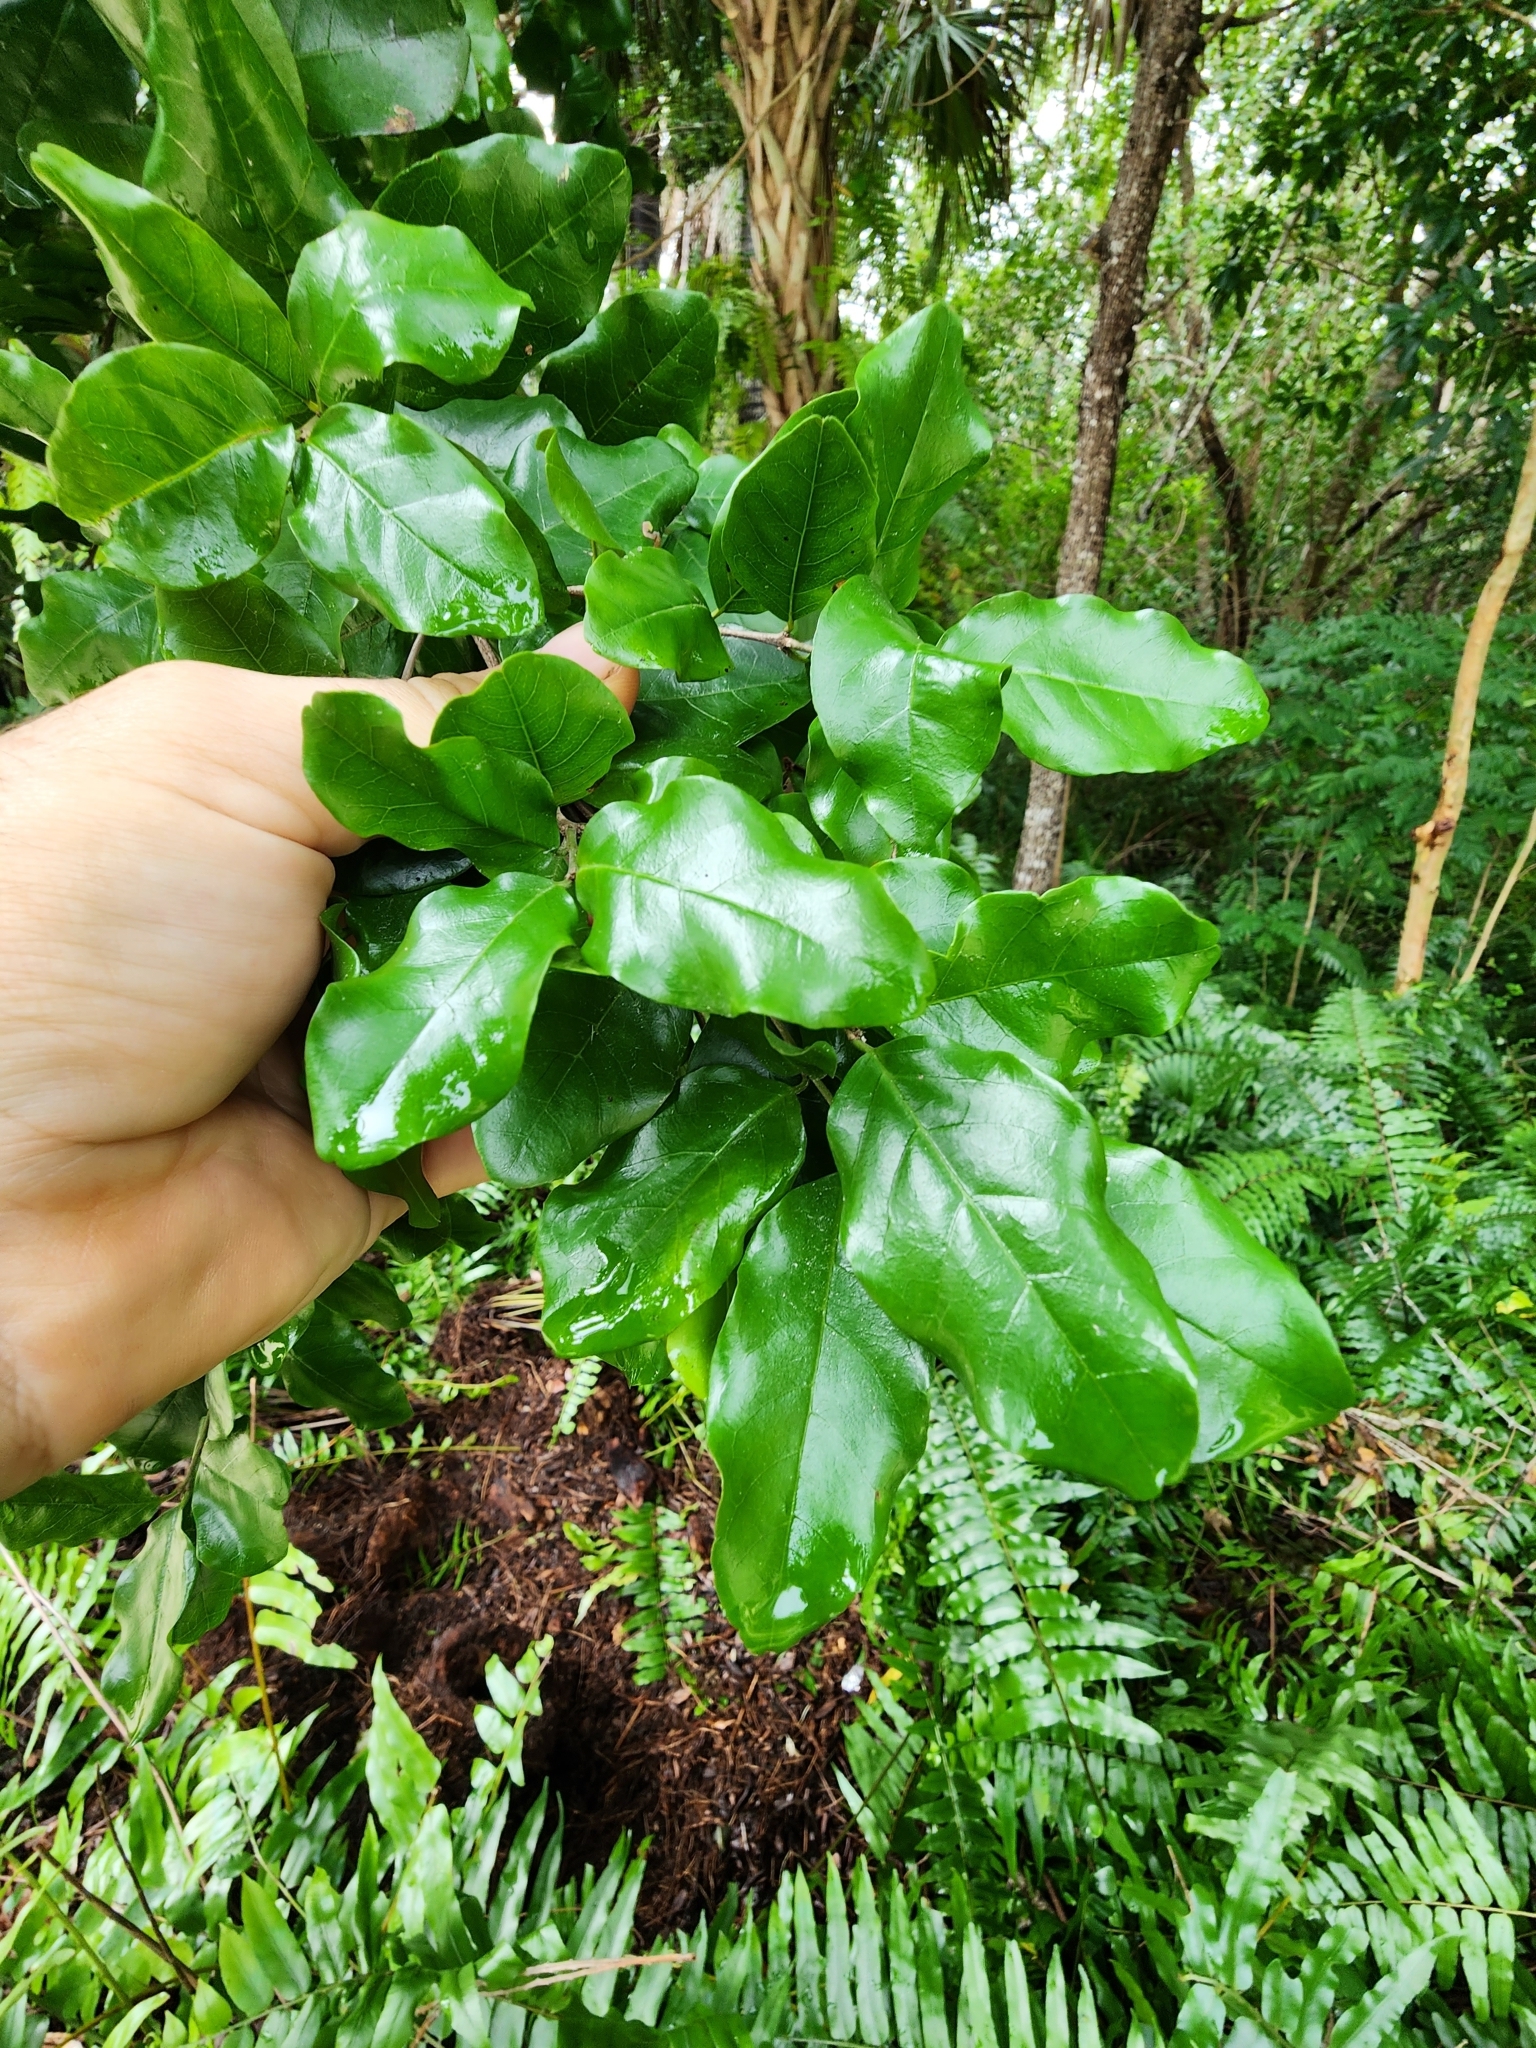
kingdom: Plantae
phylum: Tracheophyta
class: Magnoliopsida
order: Rosales
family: Rhamnaceae
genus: Krugiodendron
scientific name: Krugiodendron ferreum
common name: Iron wood
